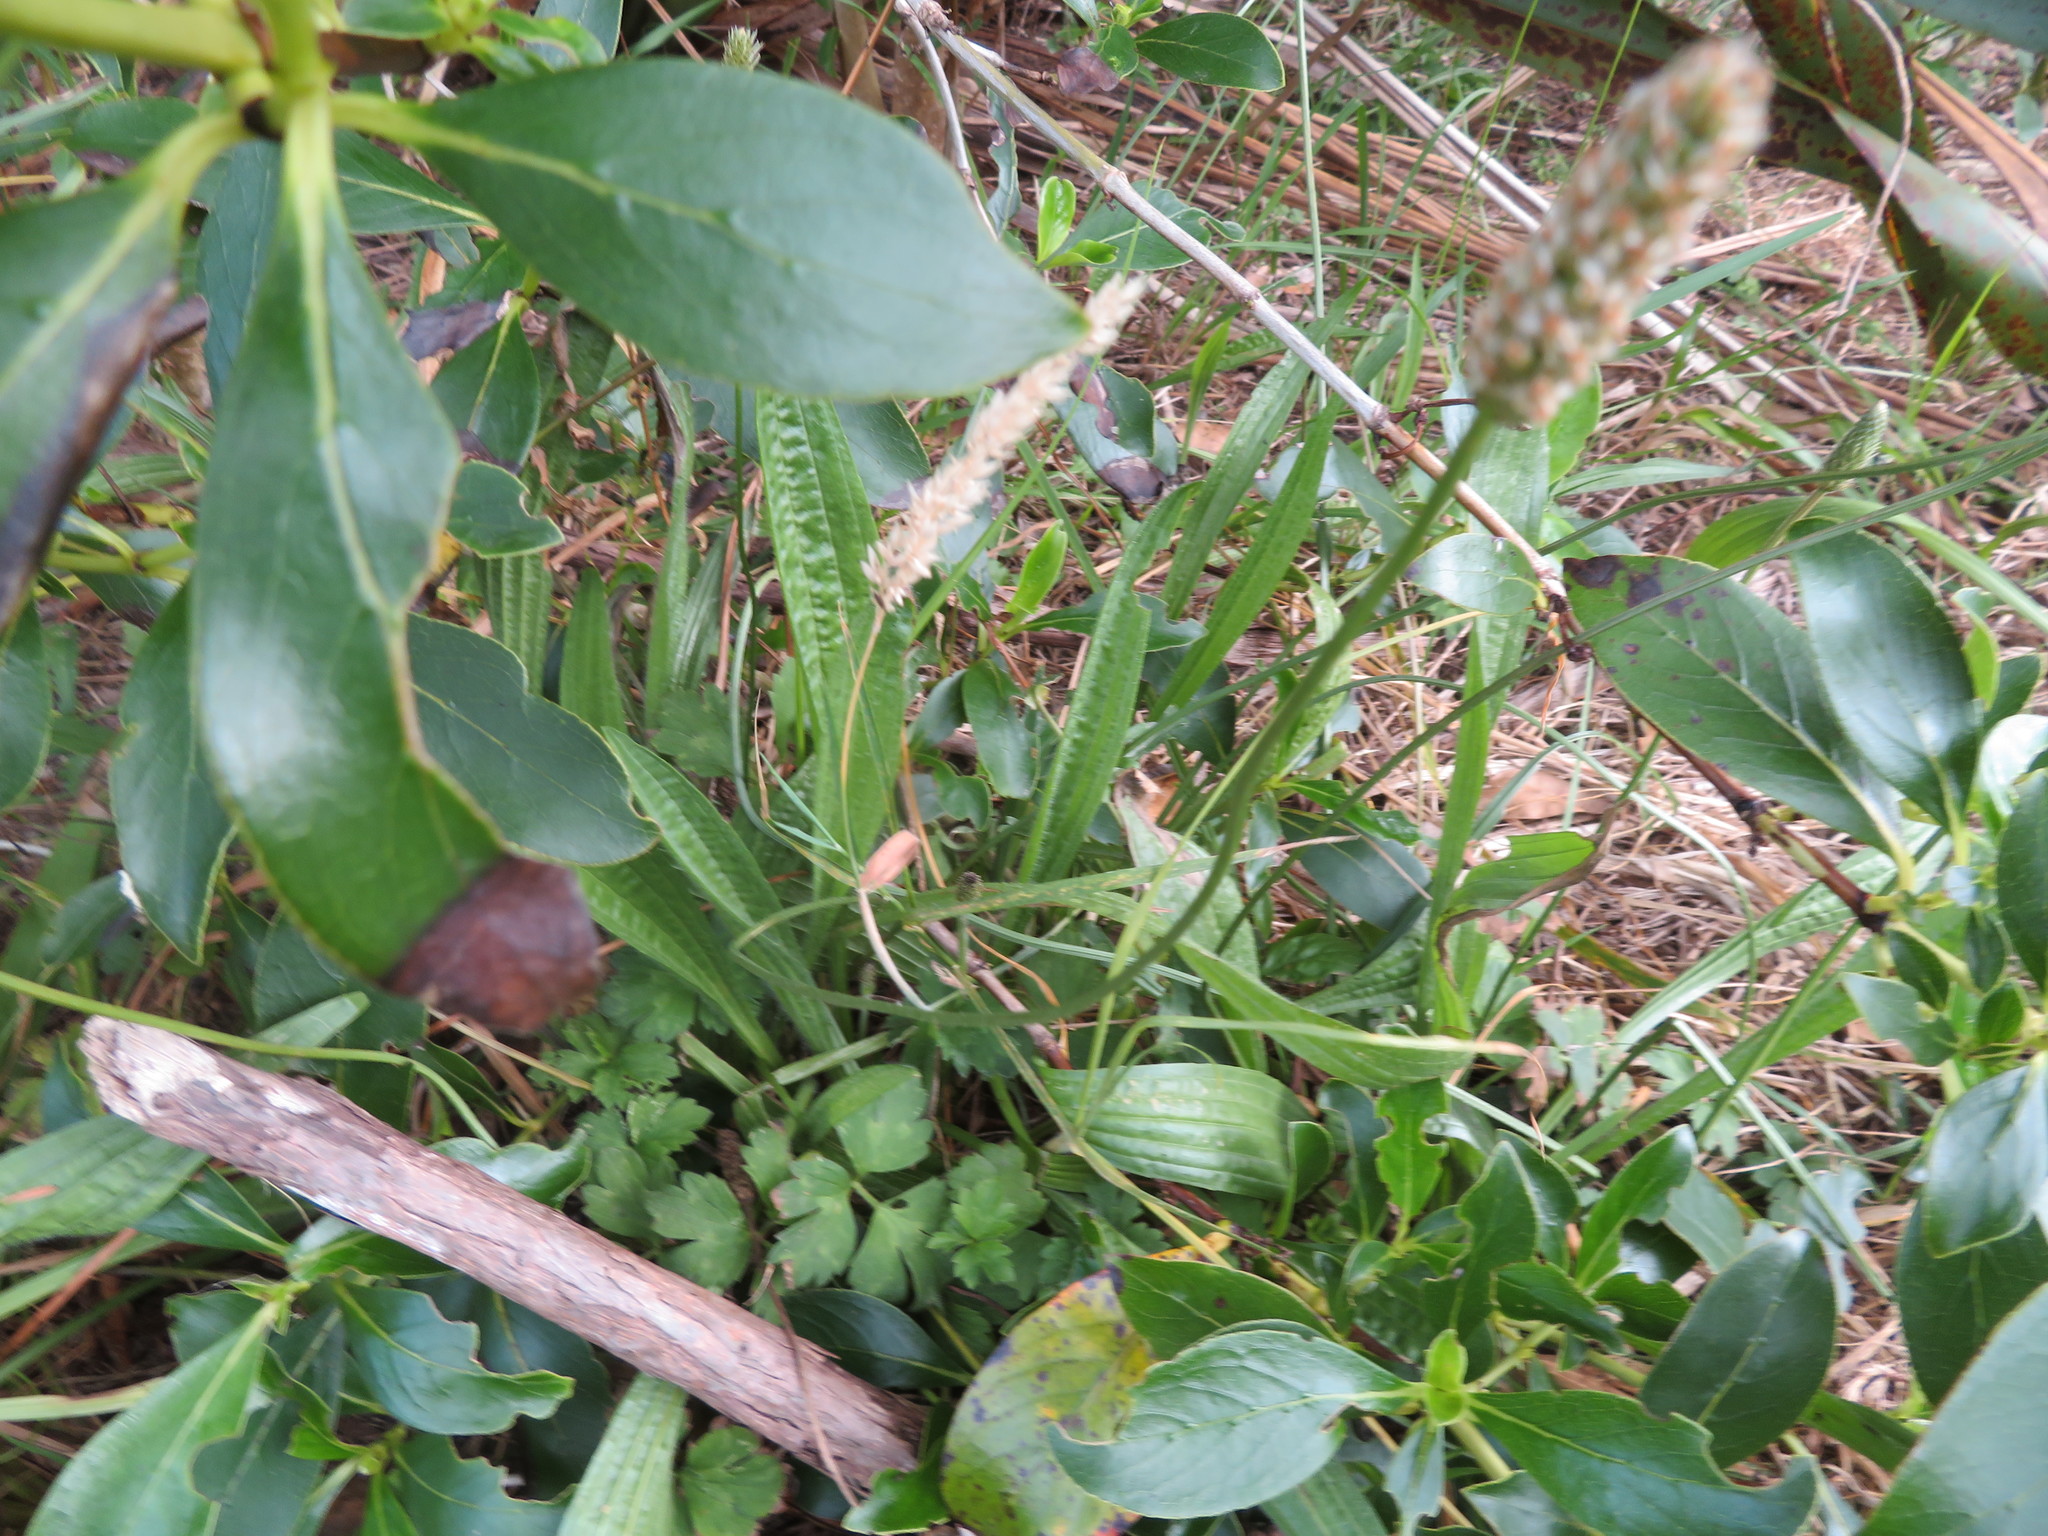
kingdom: Plantae
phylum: Tracheophyta
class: Magnoliopsida
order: Lamiales
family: Plantaginaceae
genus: Plantago
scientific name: Plantago lanceolata
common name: Ribwort plantain
